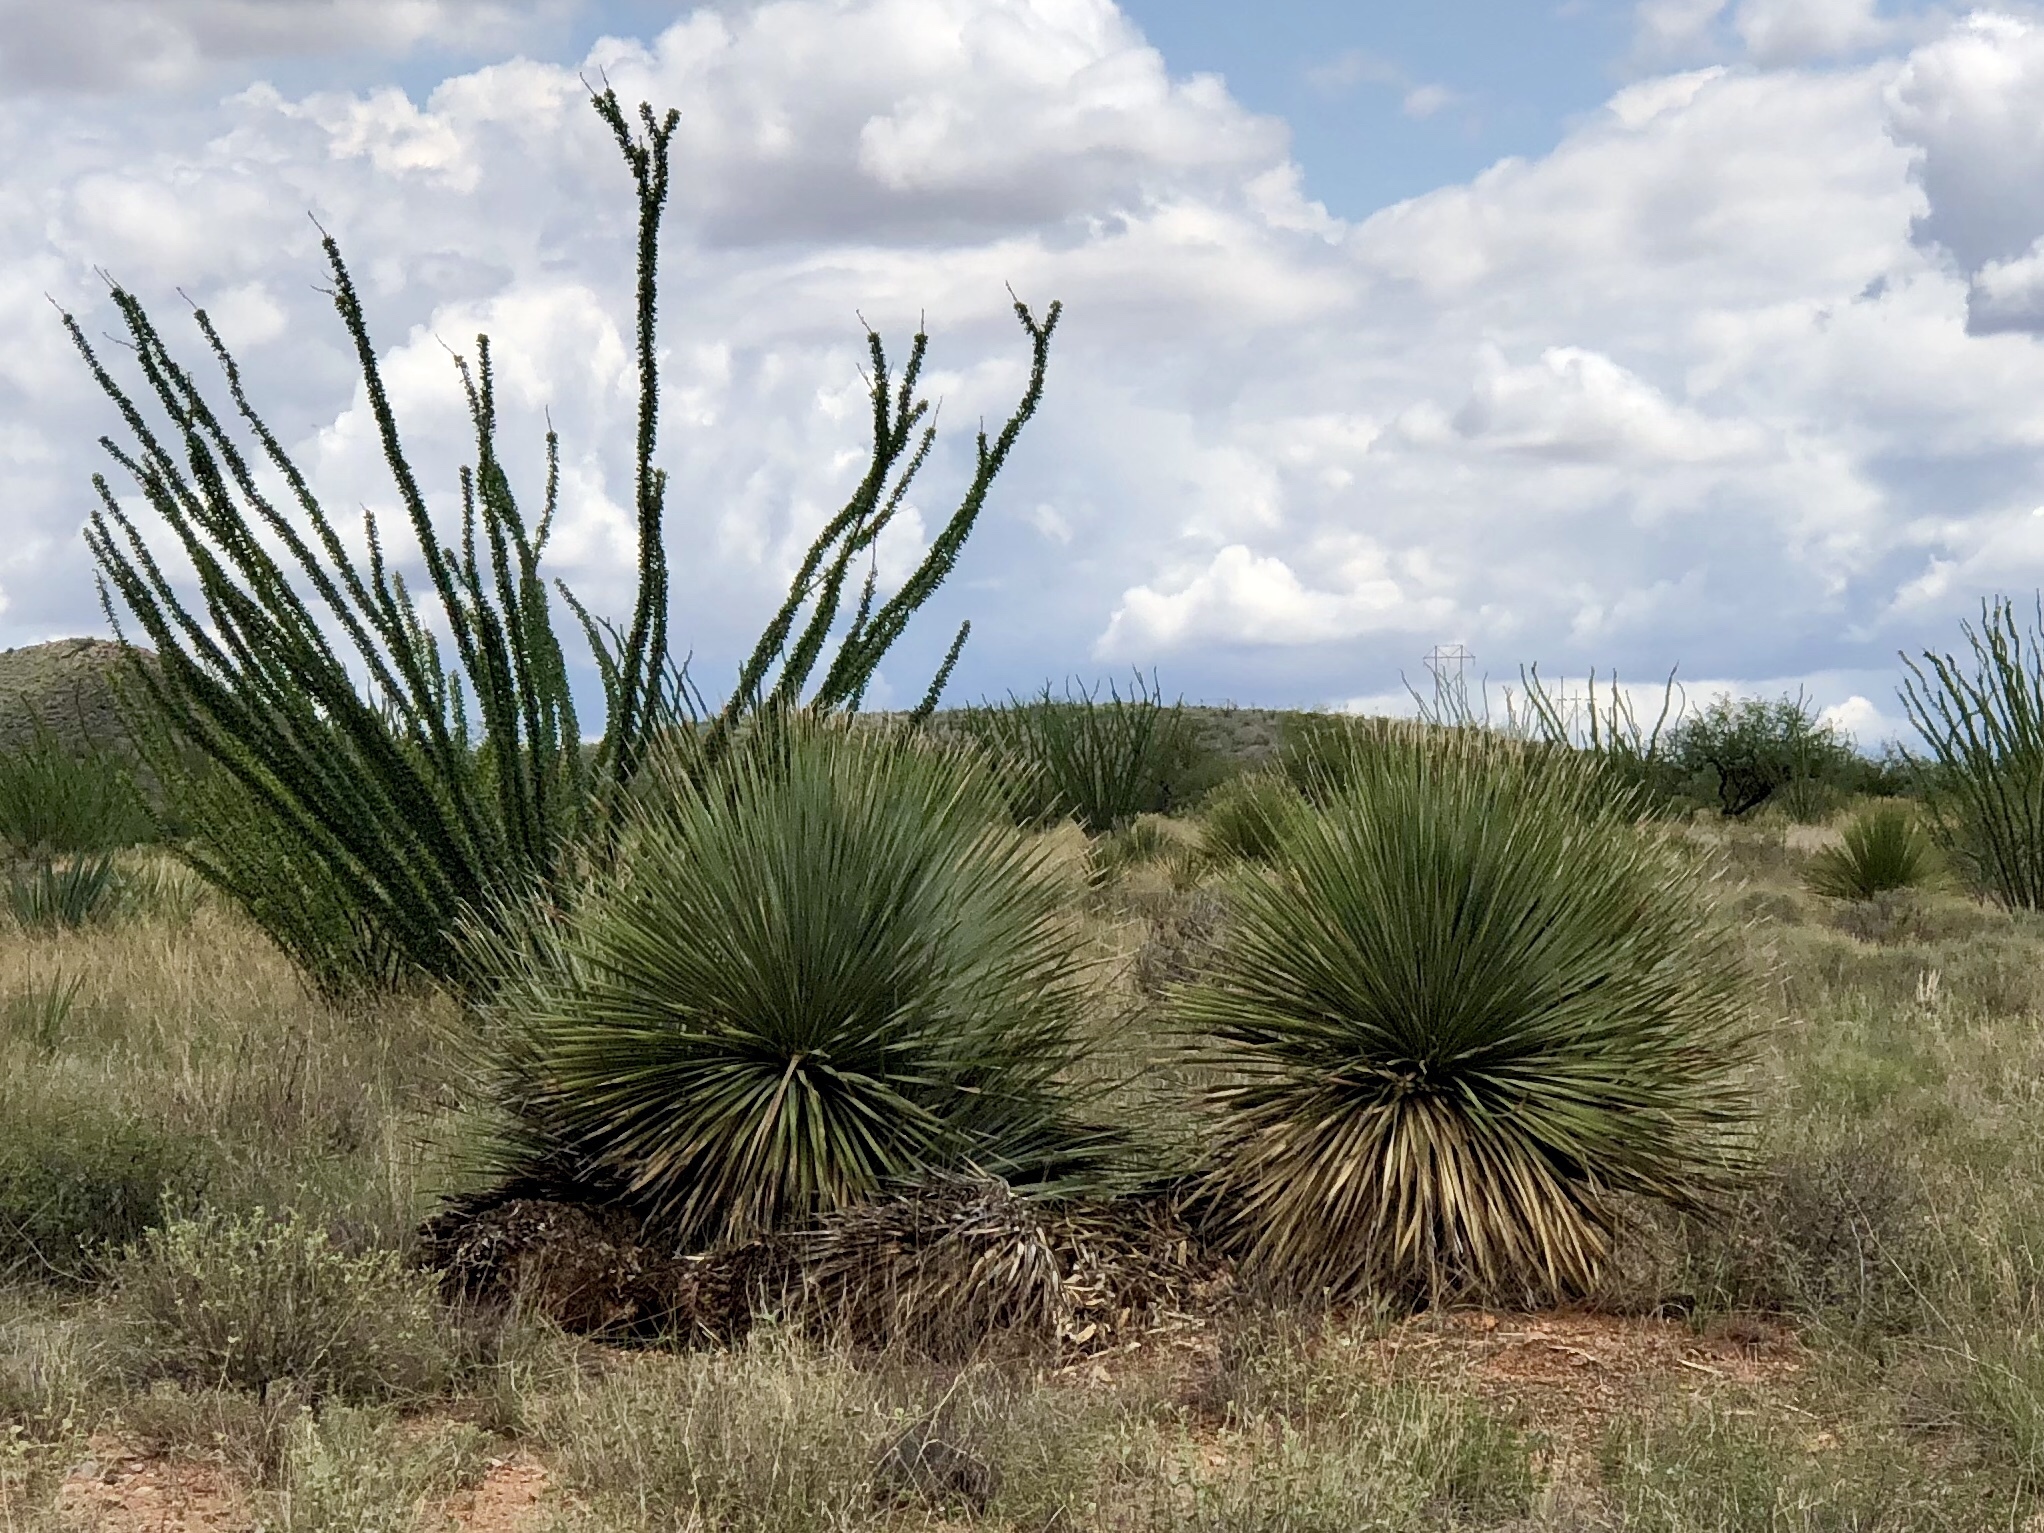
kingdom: Plantae
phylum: Tracheophyta
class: Liliopsida
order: Asparagales
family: Asparagaceae
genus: Dasylirion
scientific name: Dasylirion wheeleri
